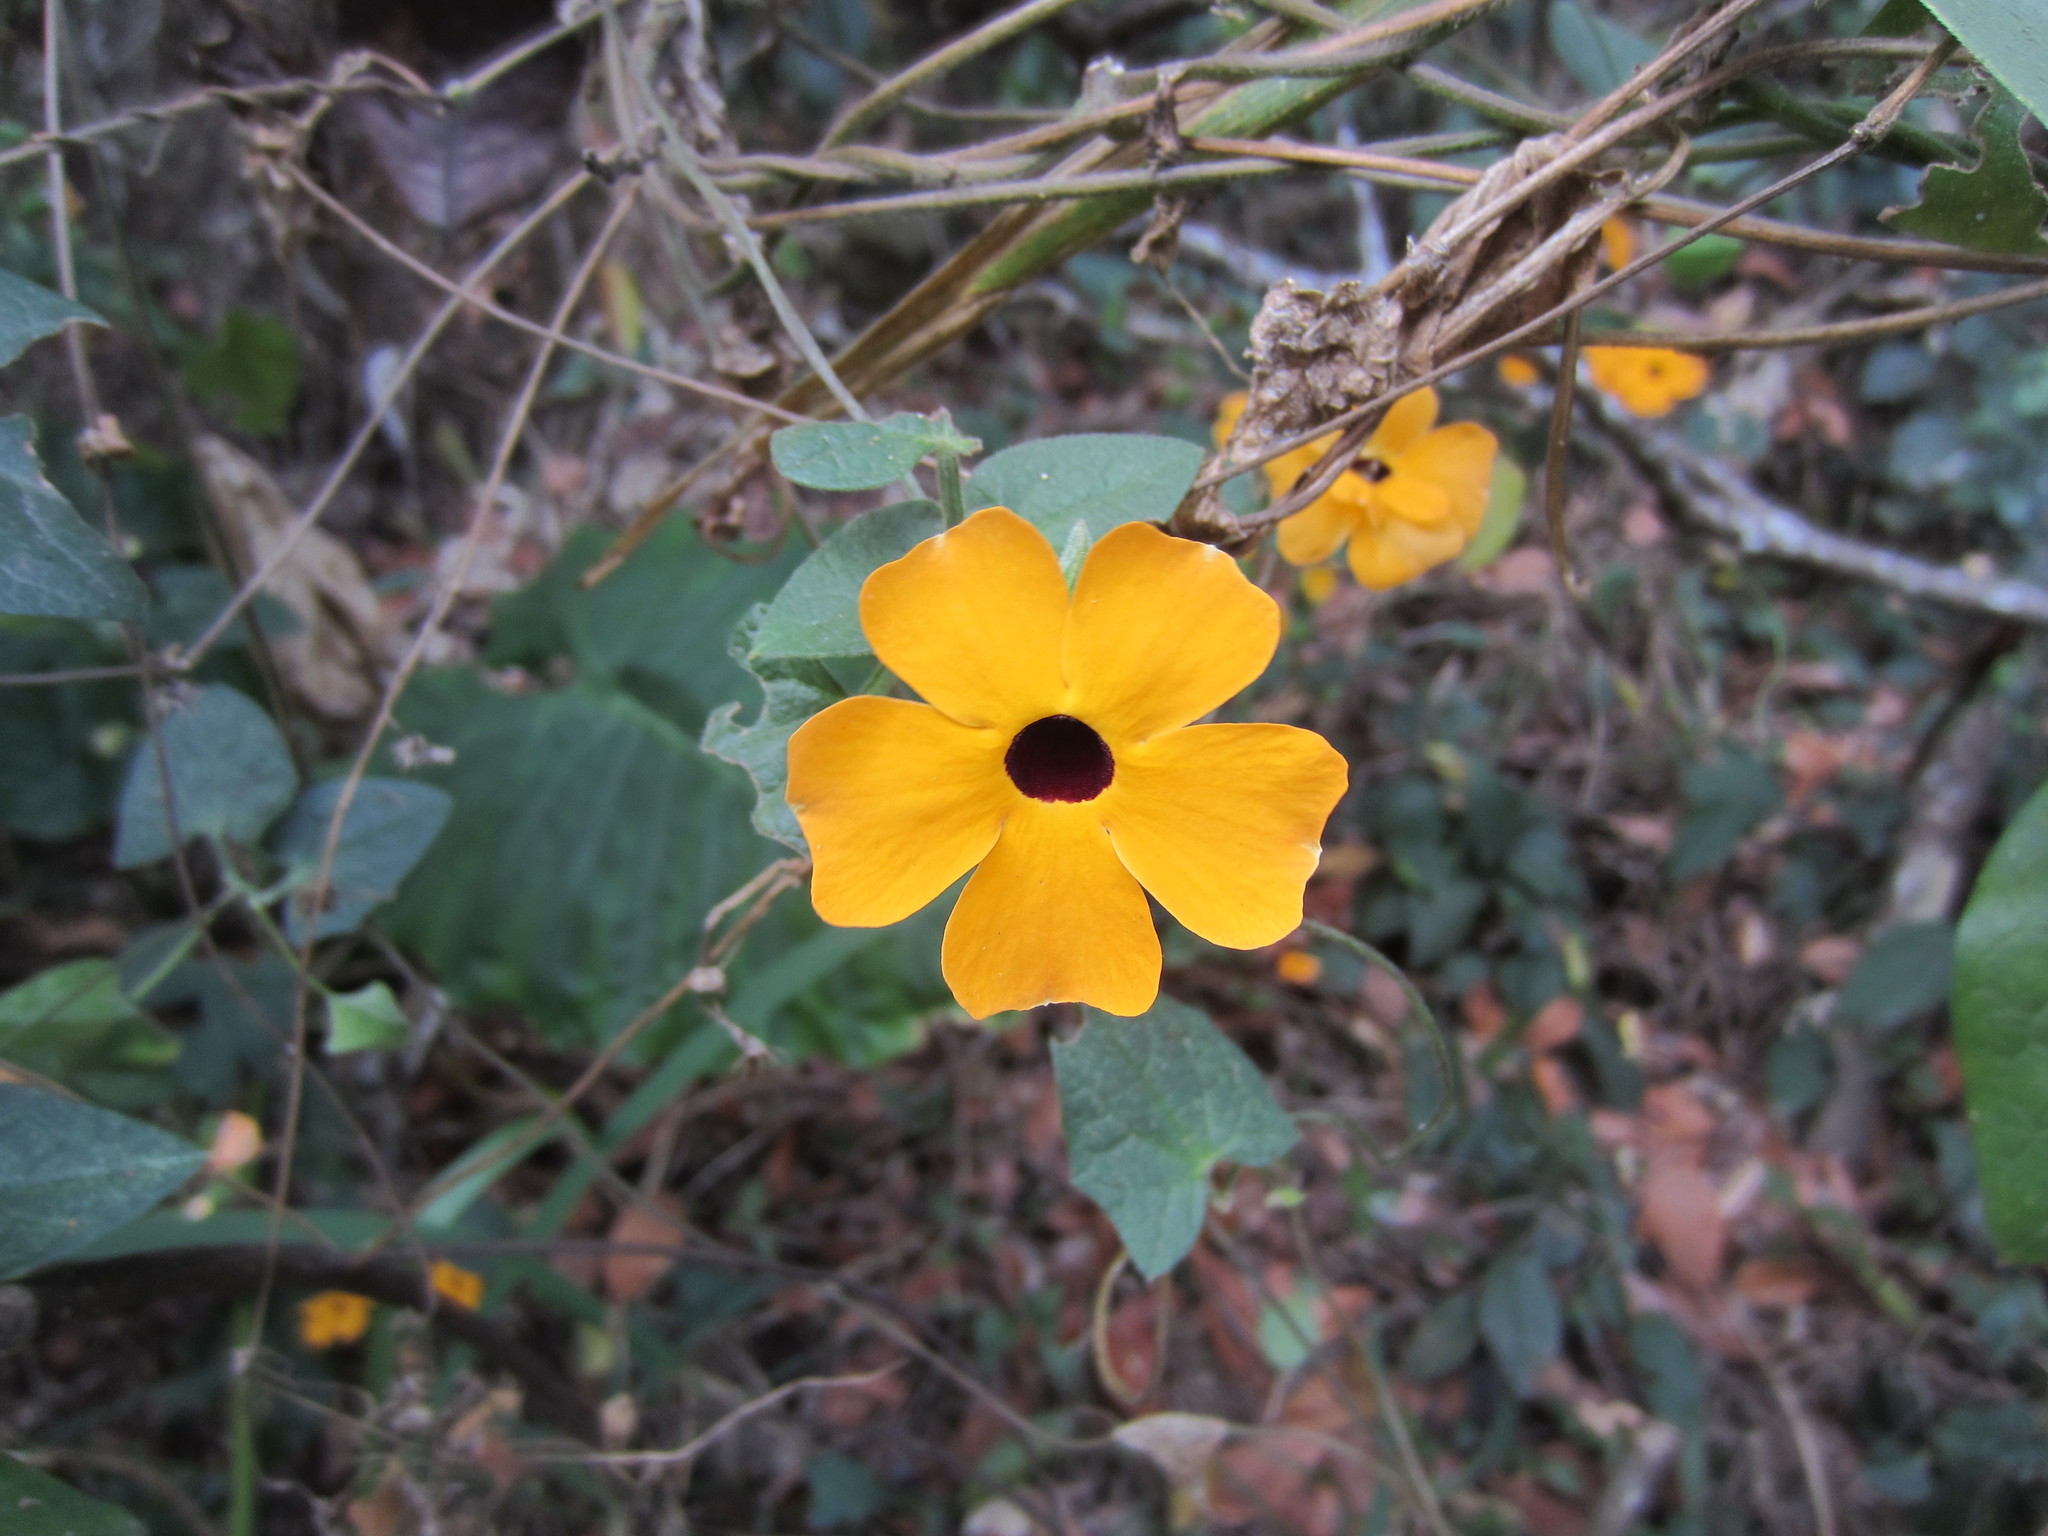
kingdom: Plantae
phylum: Tracheophyta
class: Magnoliopsida
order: Lamiales
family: Acanthaceae
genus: Thunbergia
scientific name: Thunbergia alata
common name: Blackeyed susan vine
